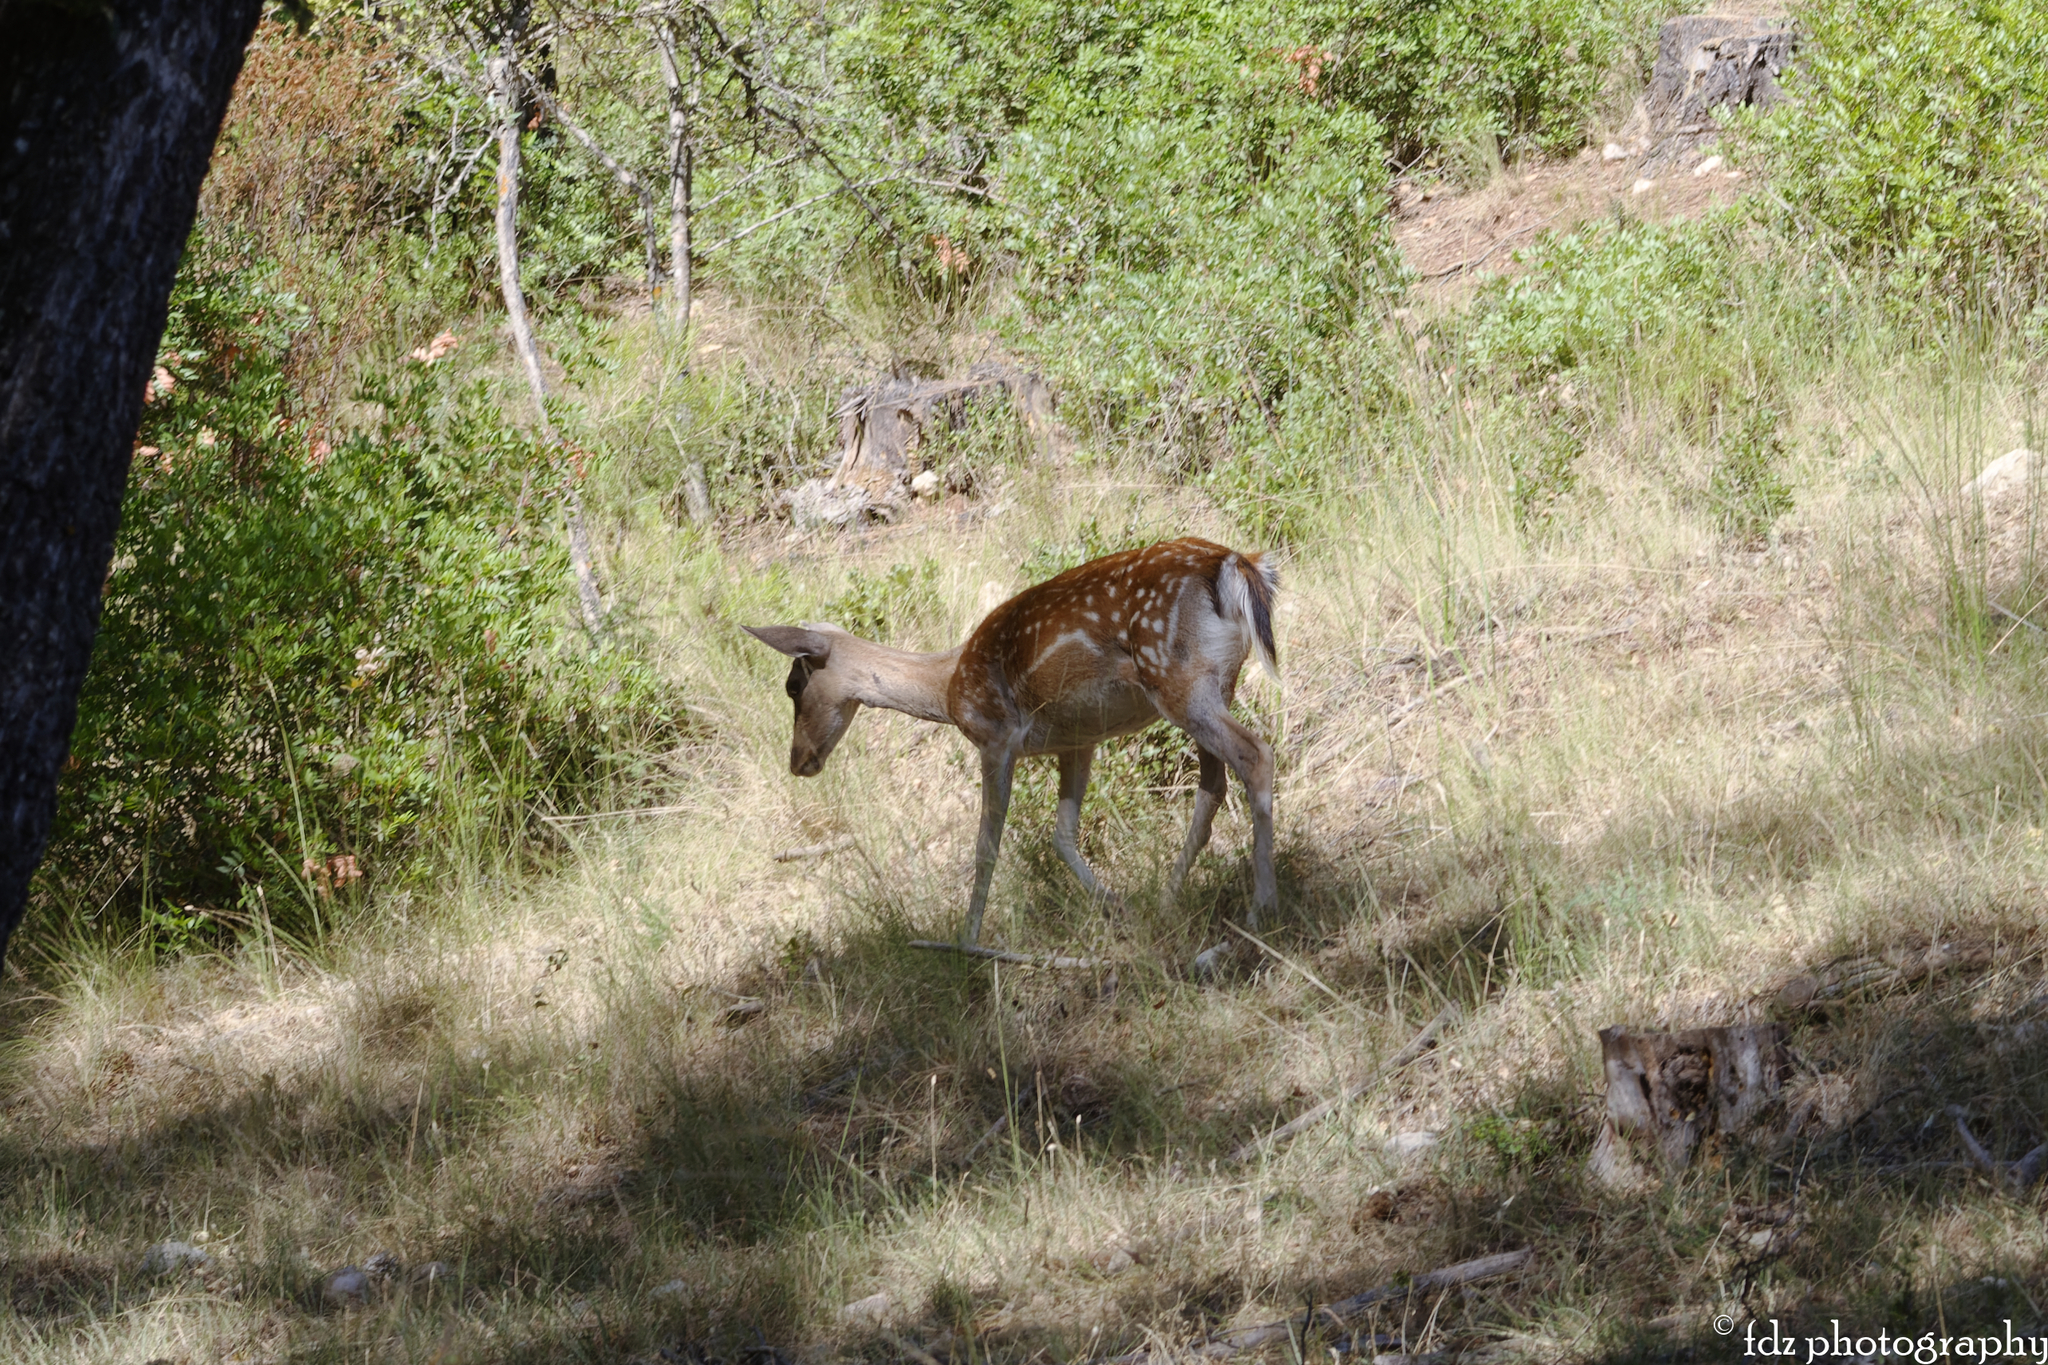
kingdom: Animalia
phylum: Chordata
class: Mammalia
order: Artiodactyla
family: Cervidae
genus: Dama
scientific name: Dama dama
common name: Fallow deer
